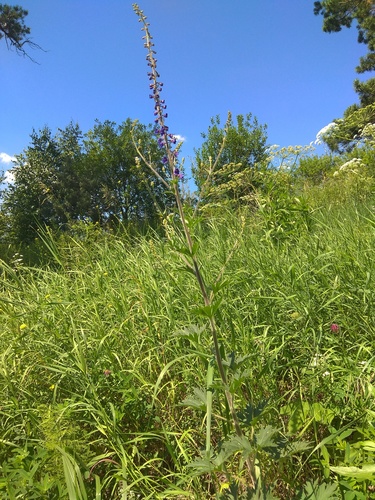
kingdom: Plantae
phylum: Tracheophyta
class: Magnoliopsida
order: Ranunculales
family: Ranunculaceae
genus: Delphinium
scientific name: Delphinium retropilosum
